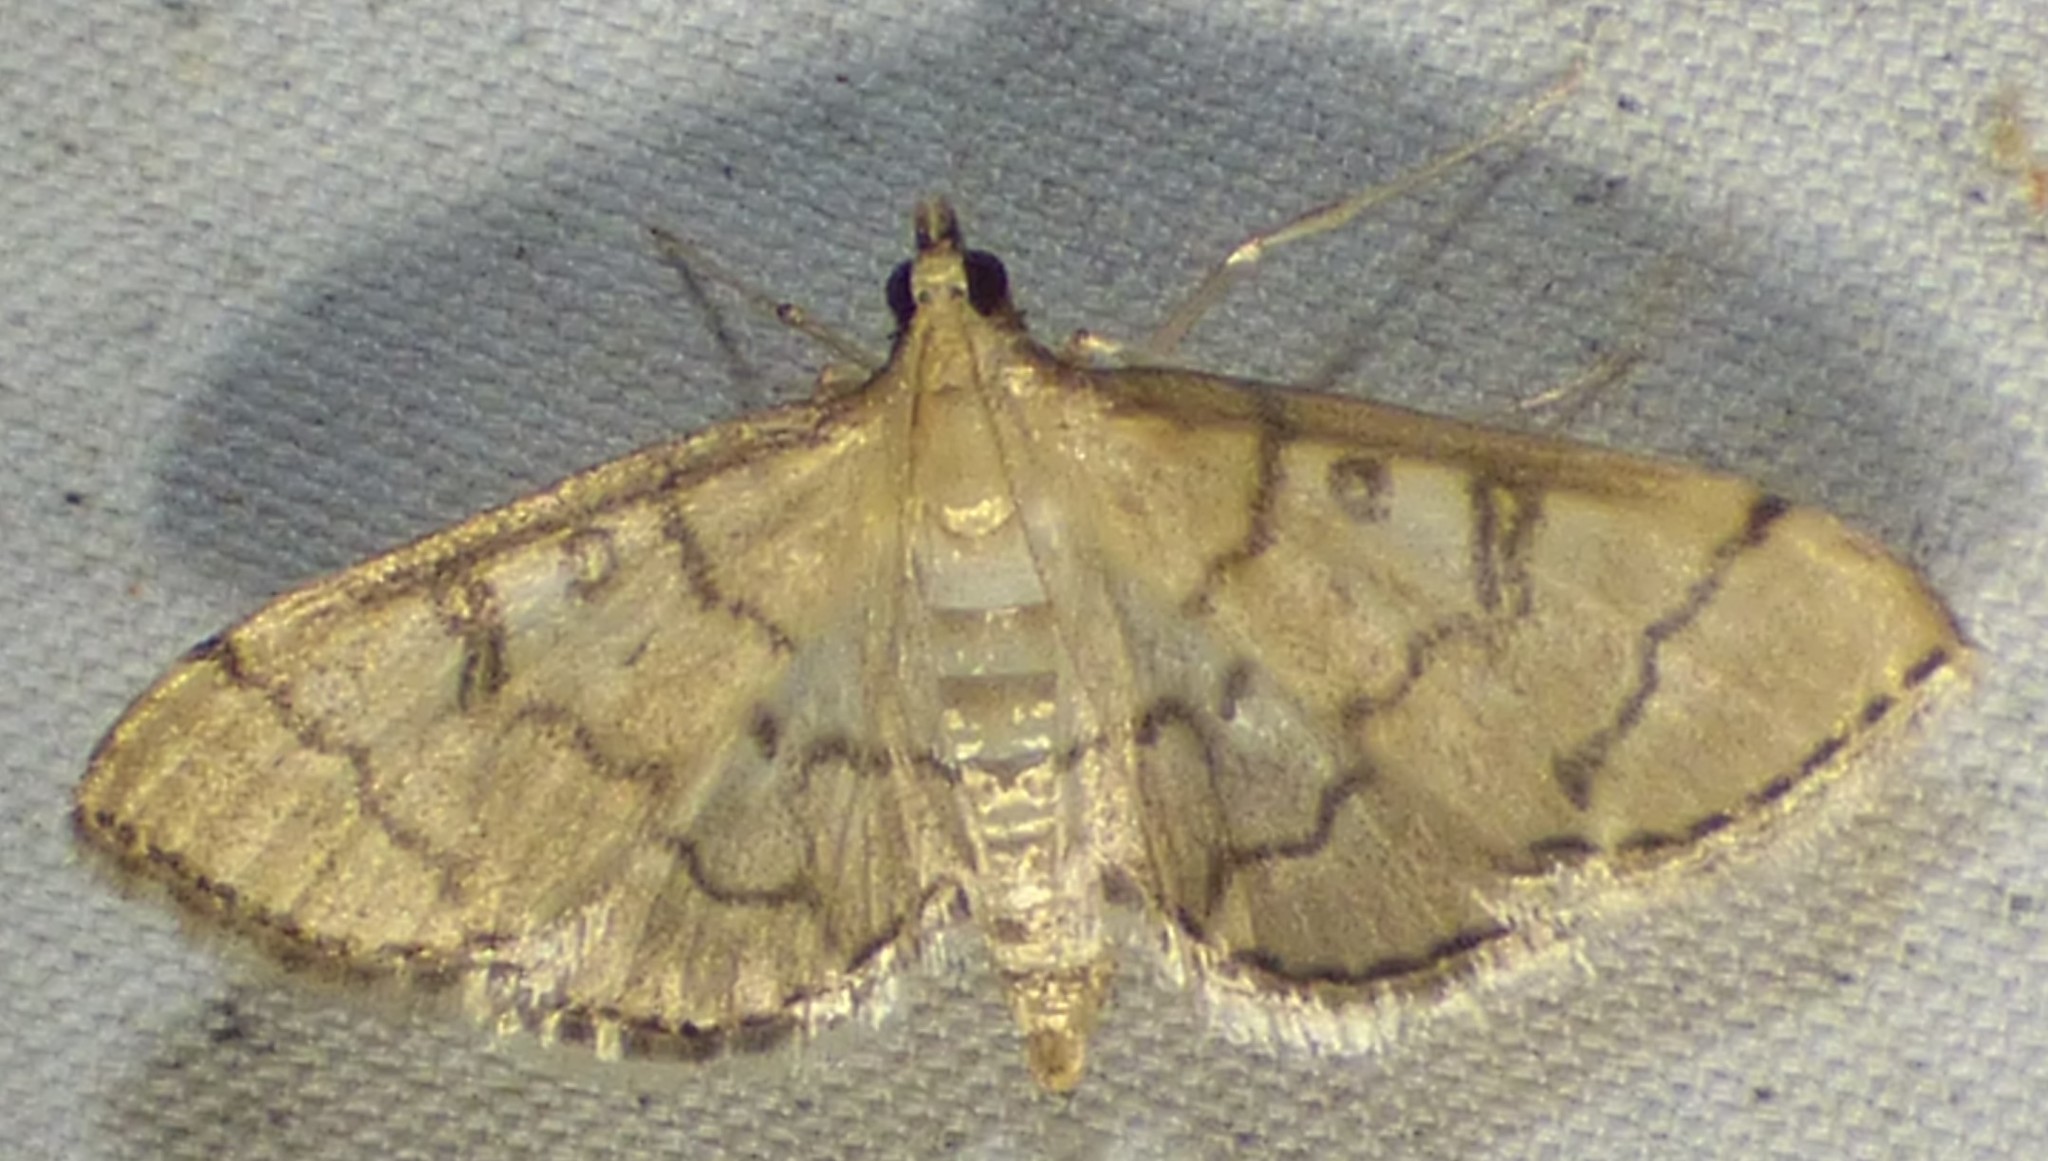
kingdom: Animalia
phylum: Arthropoda
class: Insecta
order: Lepidoptera
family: Crambidae
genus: Lamprosema
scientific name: Lamprosema Blepharomastix ranalis
